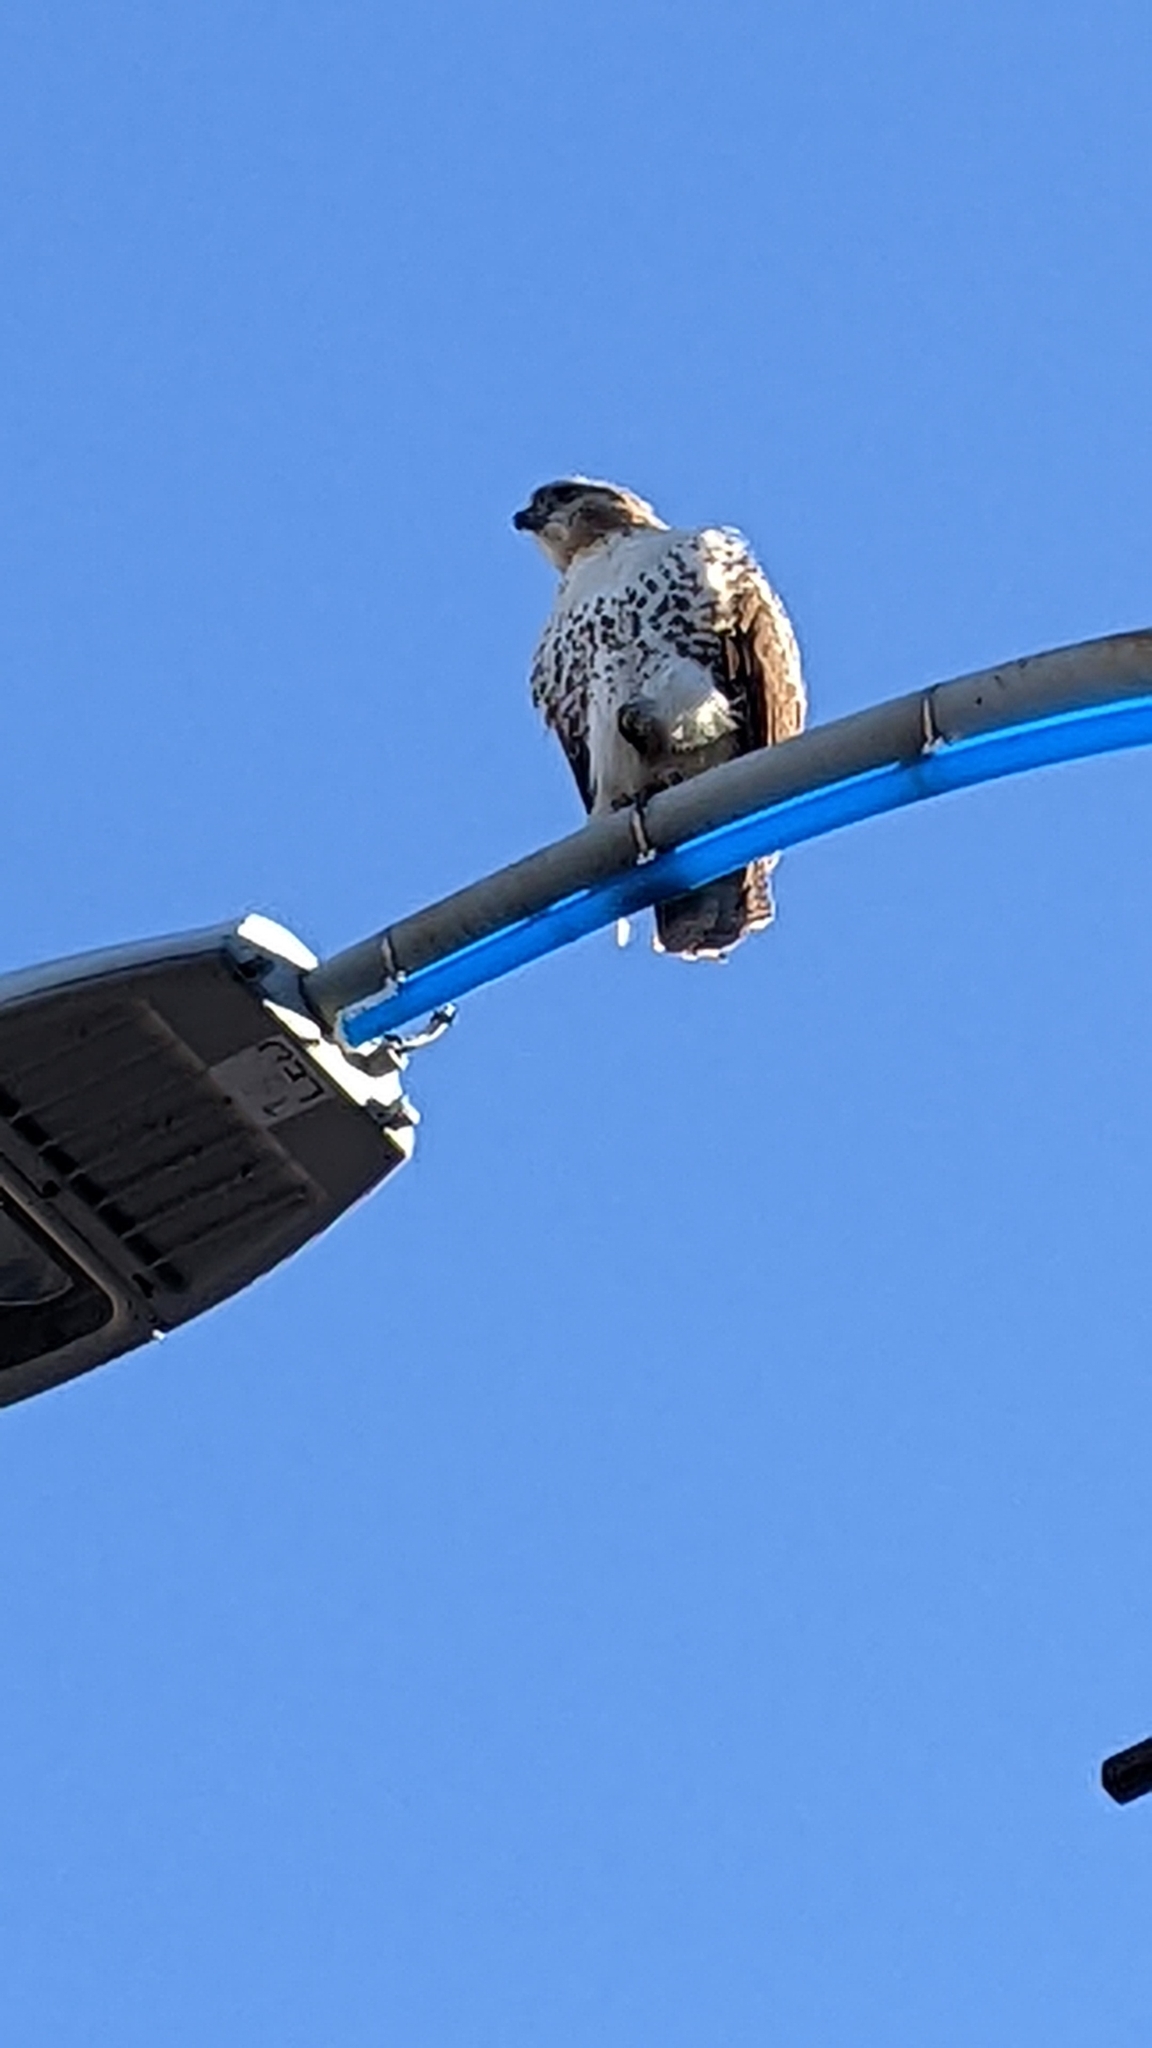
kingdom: Animalia
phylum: Chordata
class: Aves
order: Accipitriformes
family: Accipitridae
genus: Buteo
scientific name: Buteo jamaicensis
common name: Red-tailed hawk
